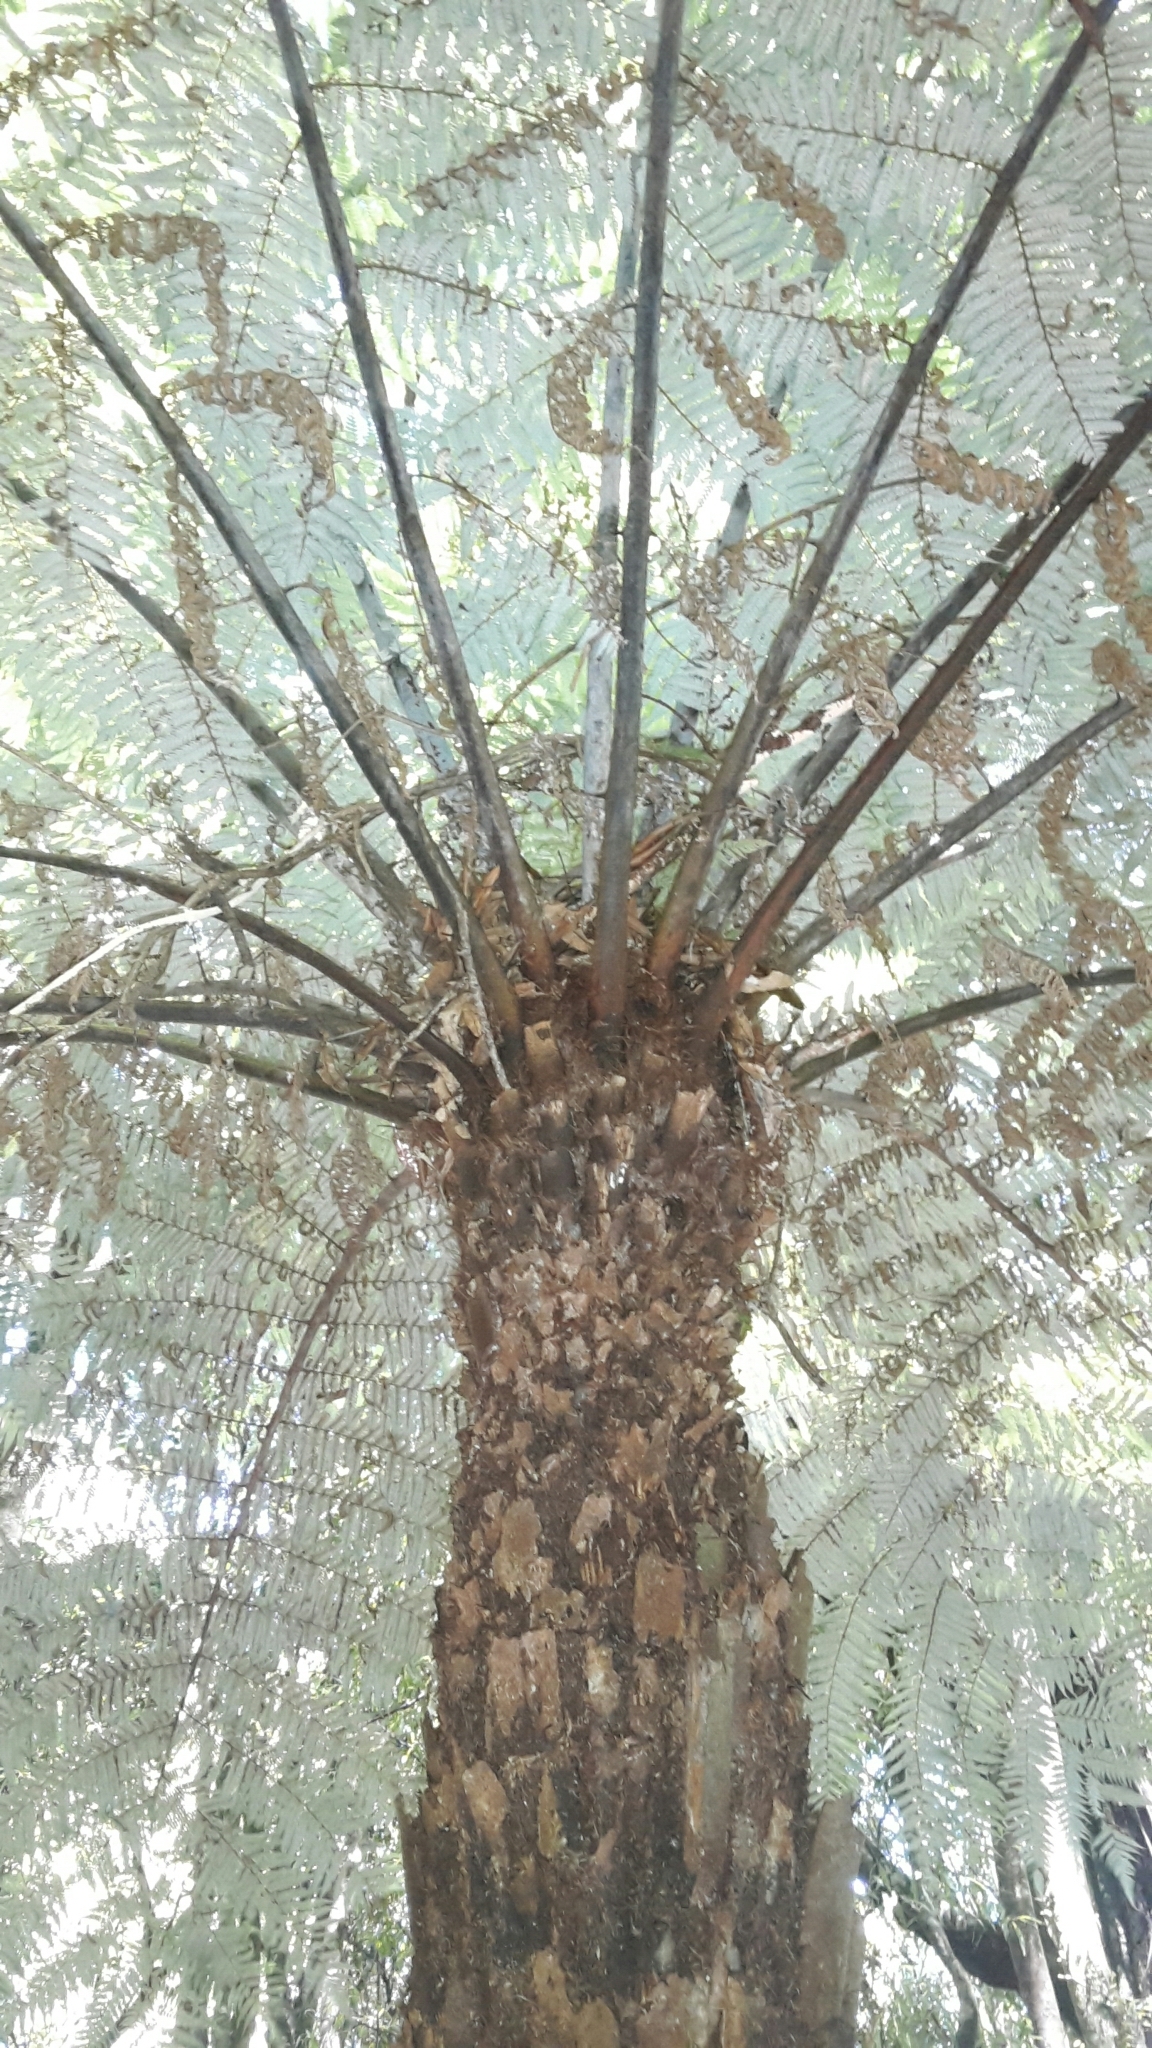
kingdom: Plantae
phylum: Tracheophyta
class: Polypodiopsida
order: Cyatheales
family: Cyatheaceae
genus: Alsophila
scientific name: Alsophila dealbata
